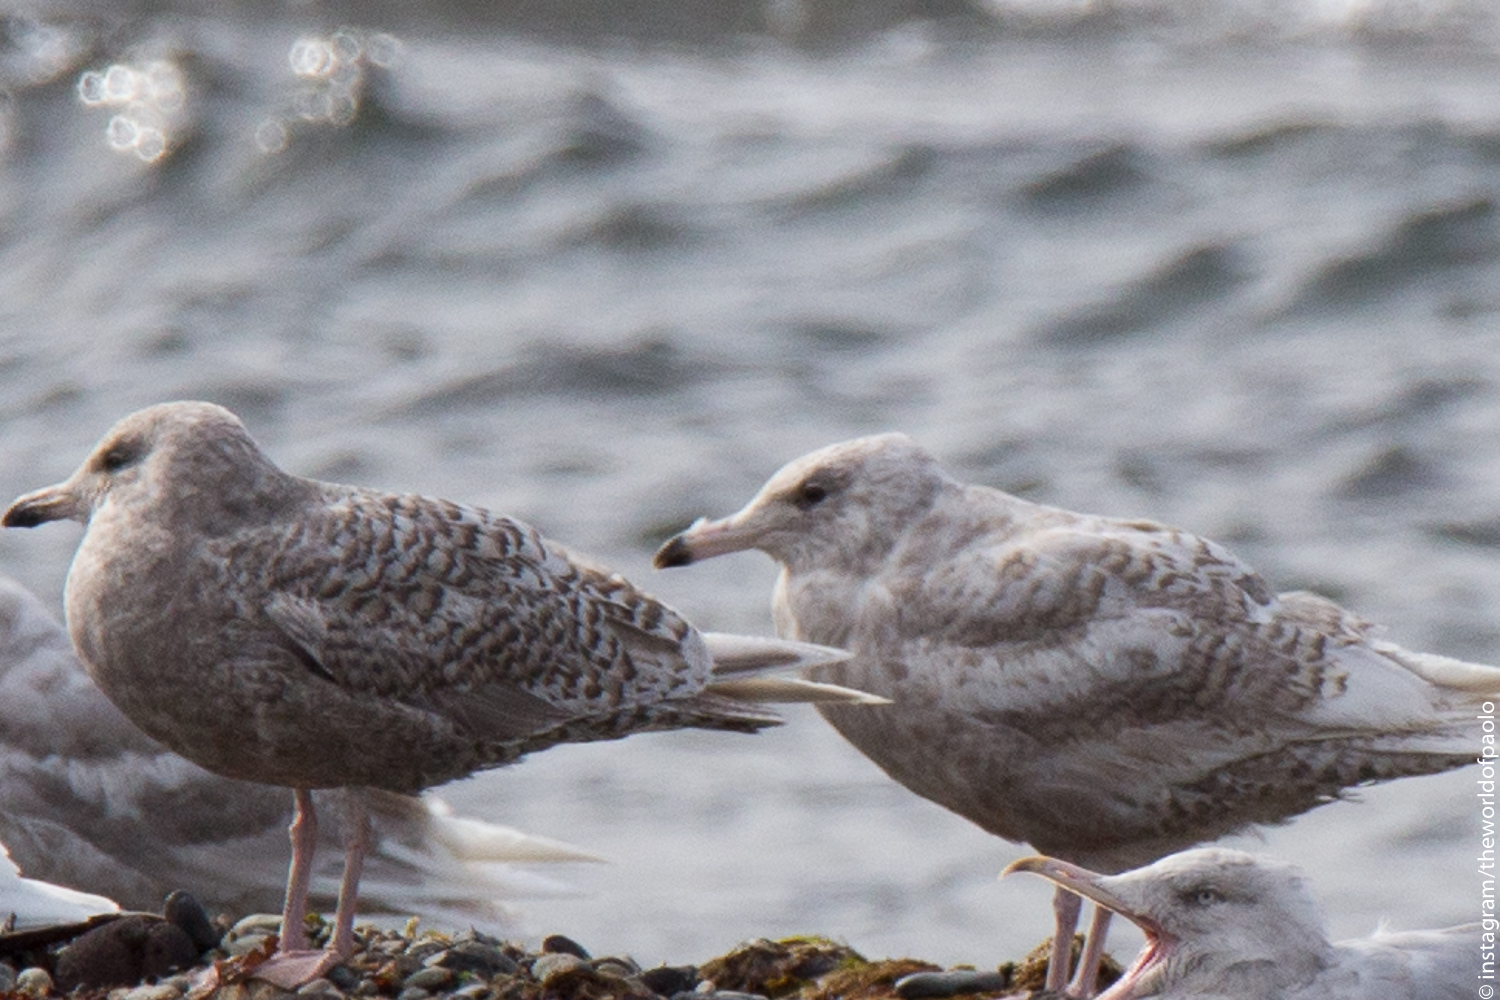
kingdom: Animalia
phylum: Chordata
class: Aves
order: Charadriiformes
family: Laridae
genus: Larus
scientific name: Larus
